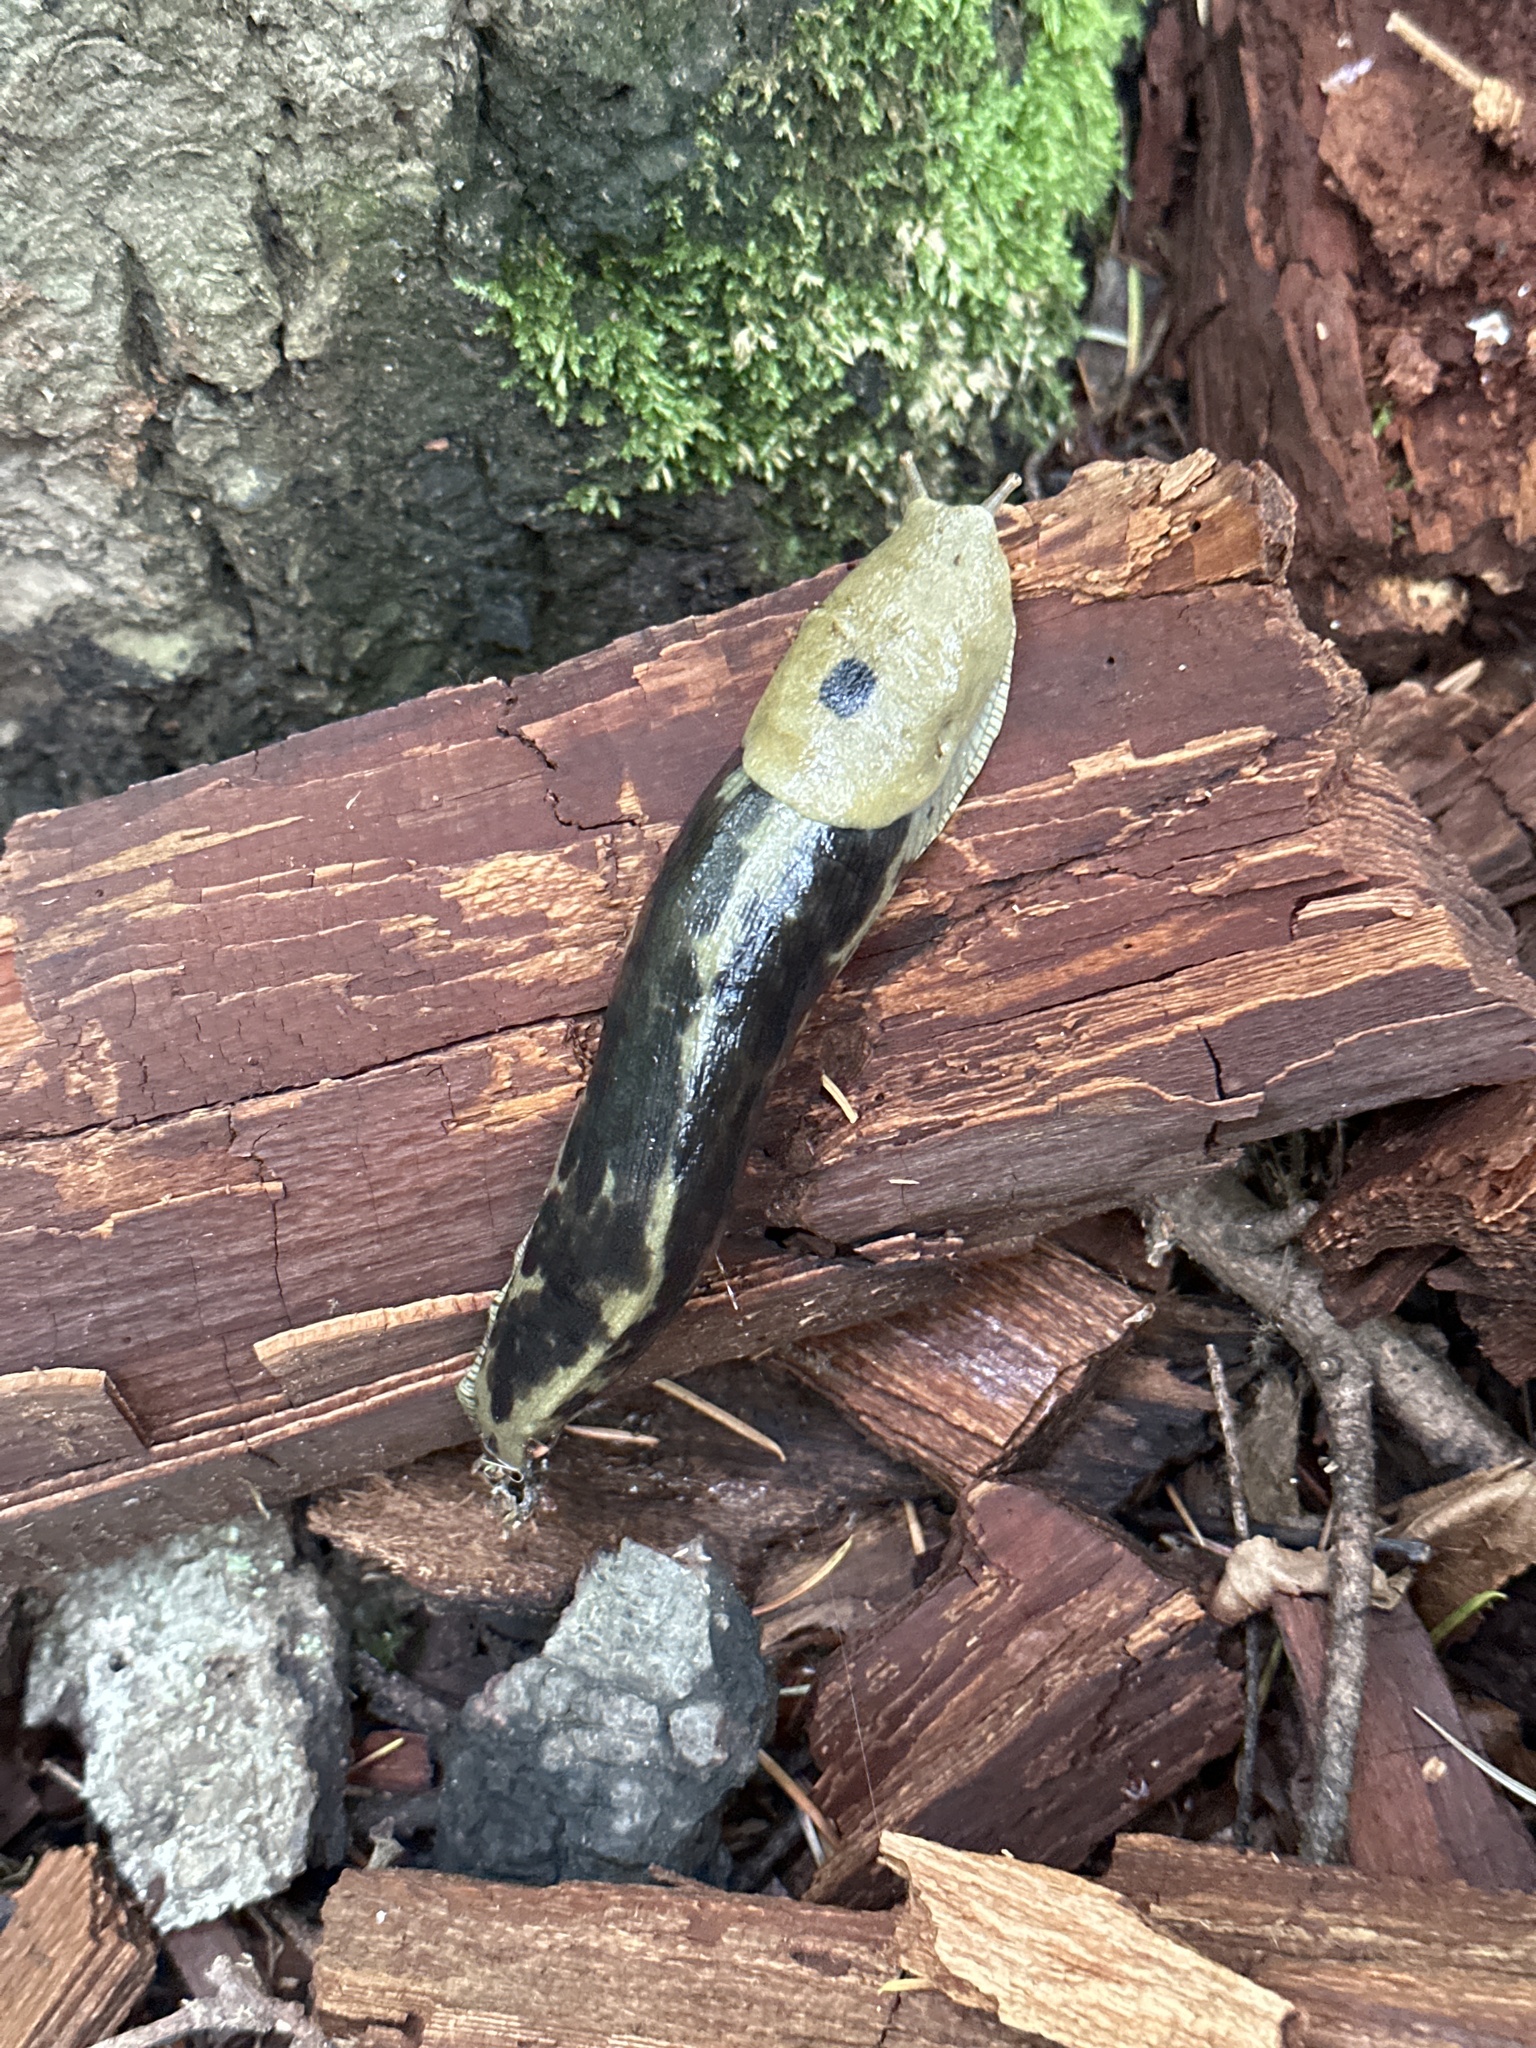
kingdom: Animalia
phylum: Mollusca
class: Gastropoda
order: Stylommatophora
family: Ariolimacidae
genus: Ariolimax
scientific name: Ariolimax columbianus
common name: Pacific banana slug
